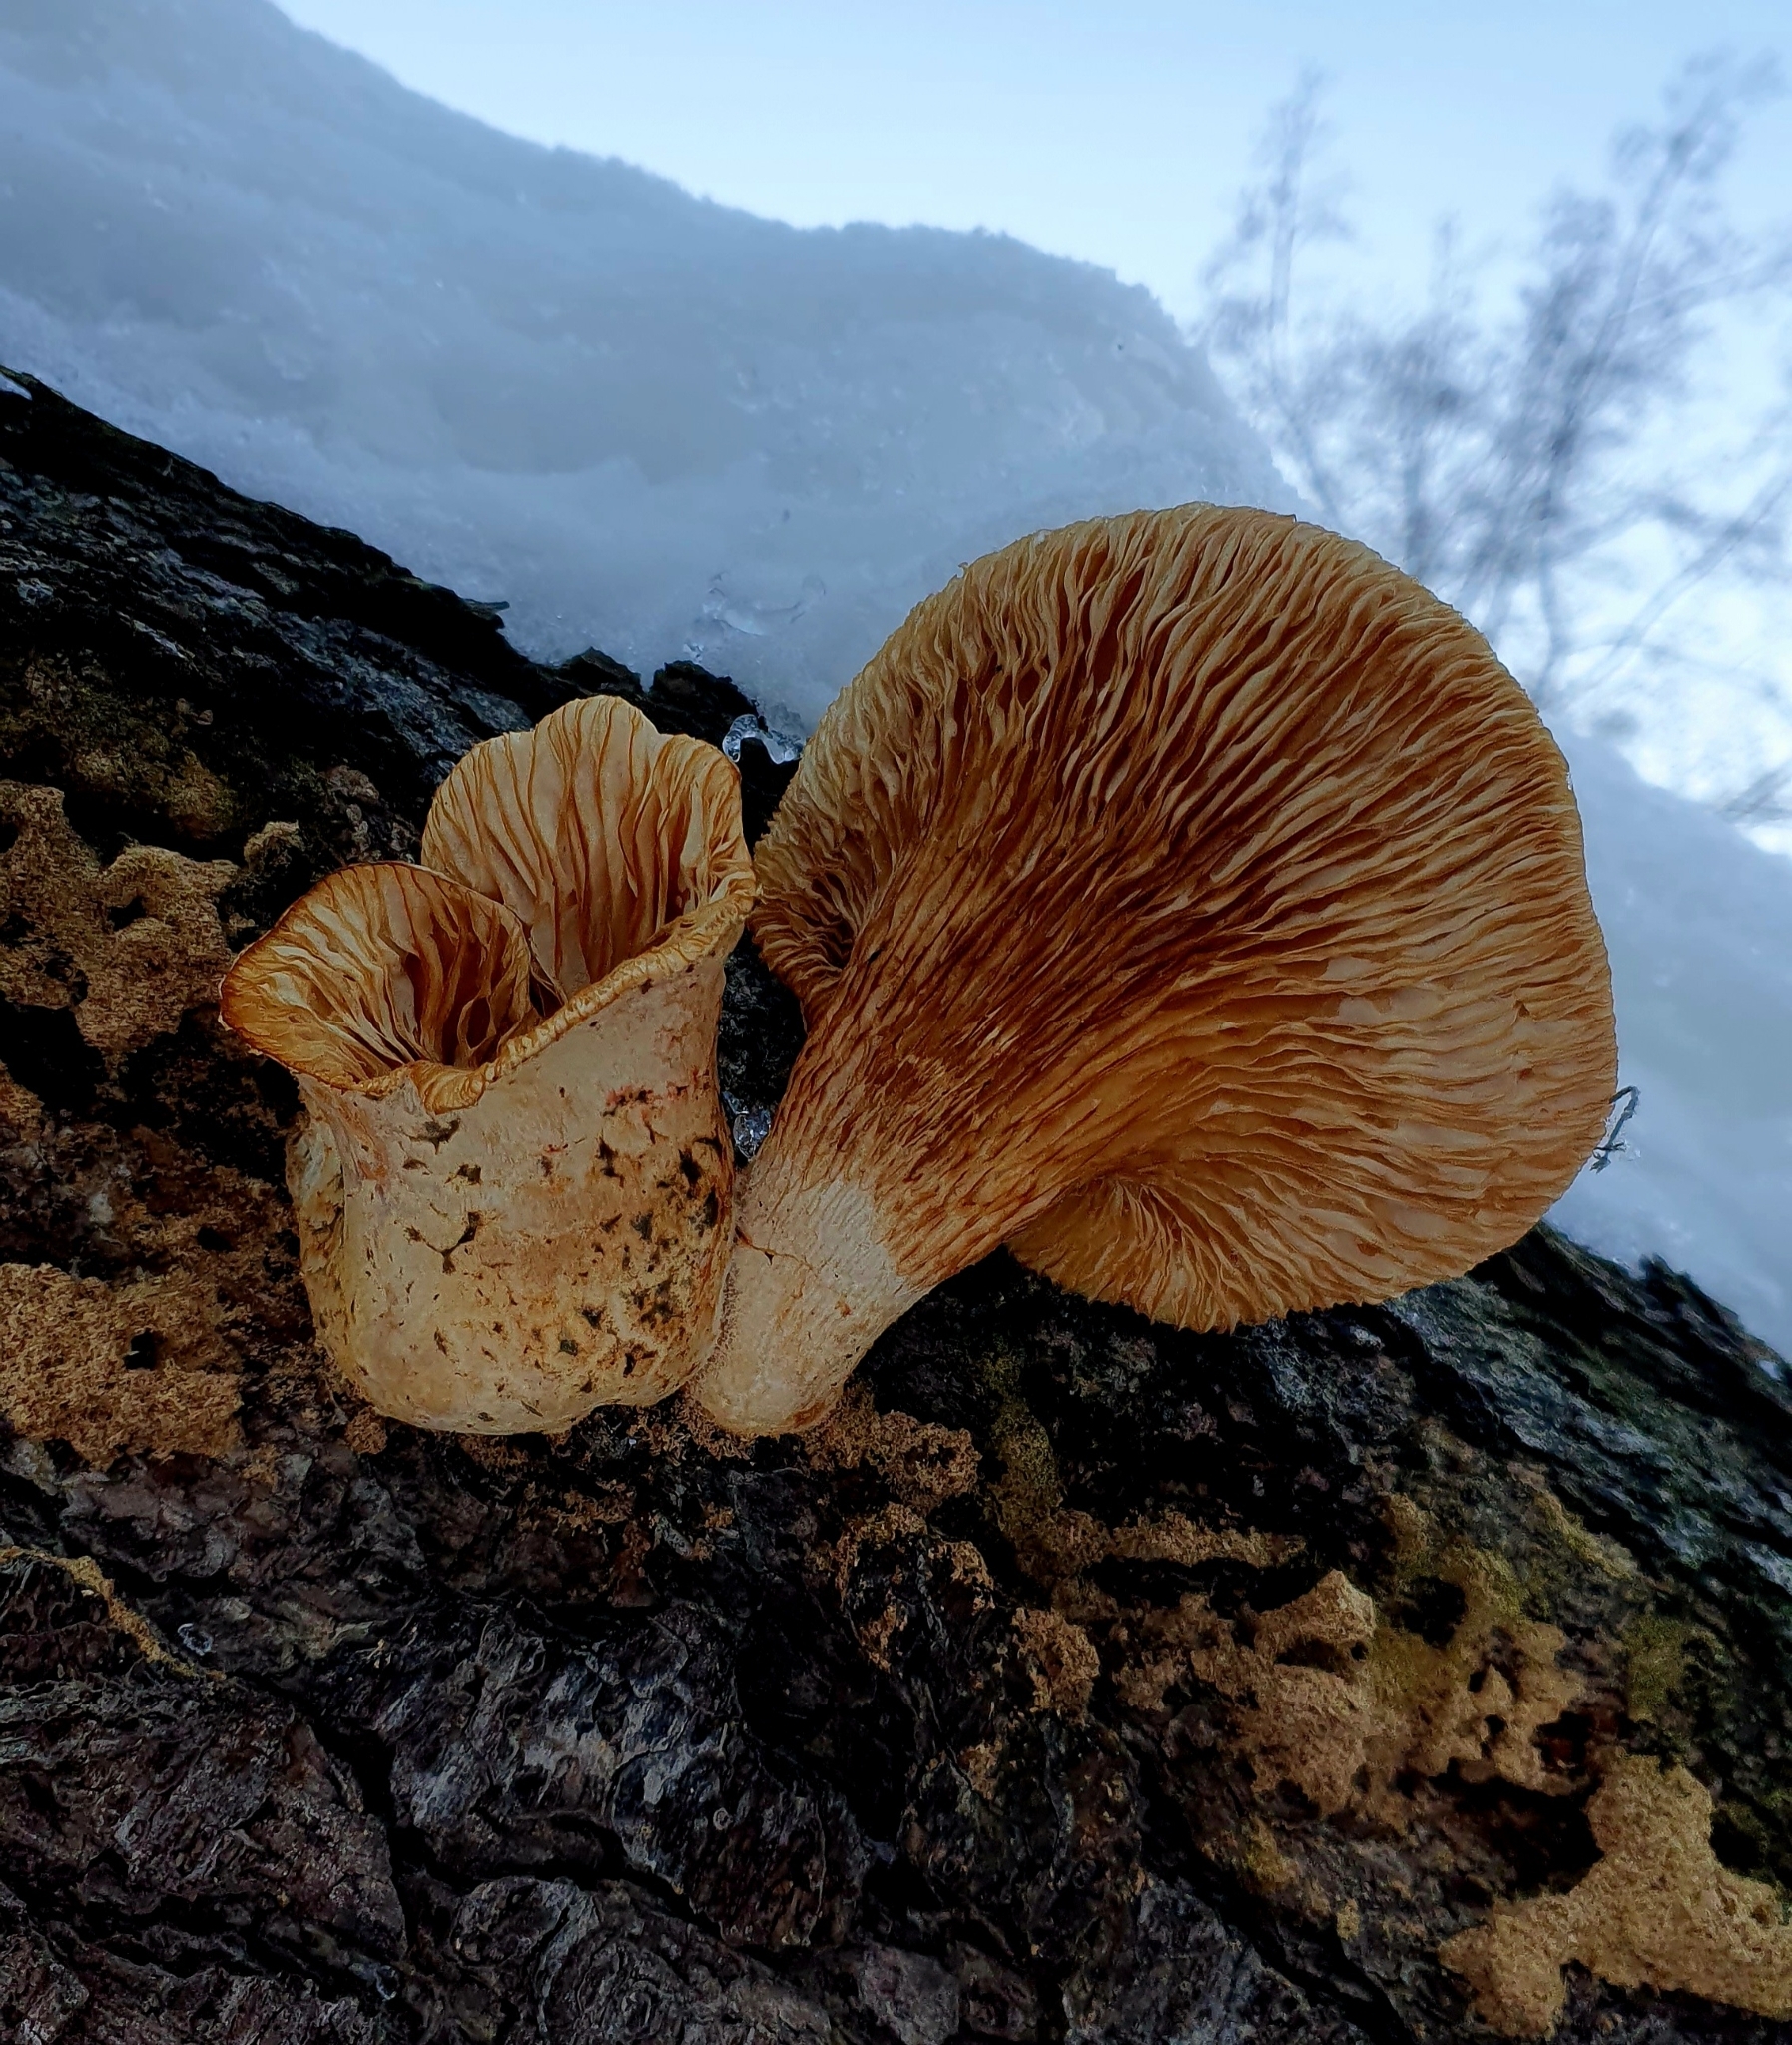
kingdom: Fungi
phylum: Basidiomycota
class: Agaricomycetes
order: Gloeophyllales
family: Gloeophyllaceae
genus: Neolentinus
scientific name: Neolentinus lepideus
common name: Scaly sawgill
